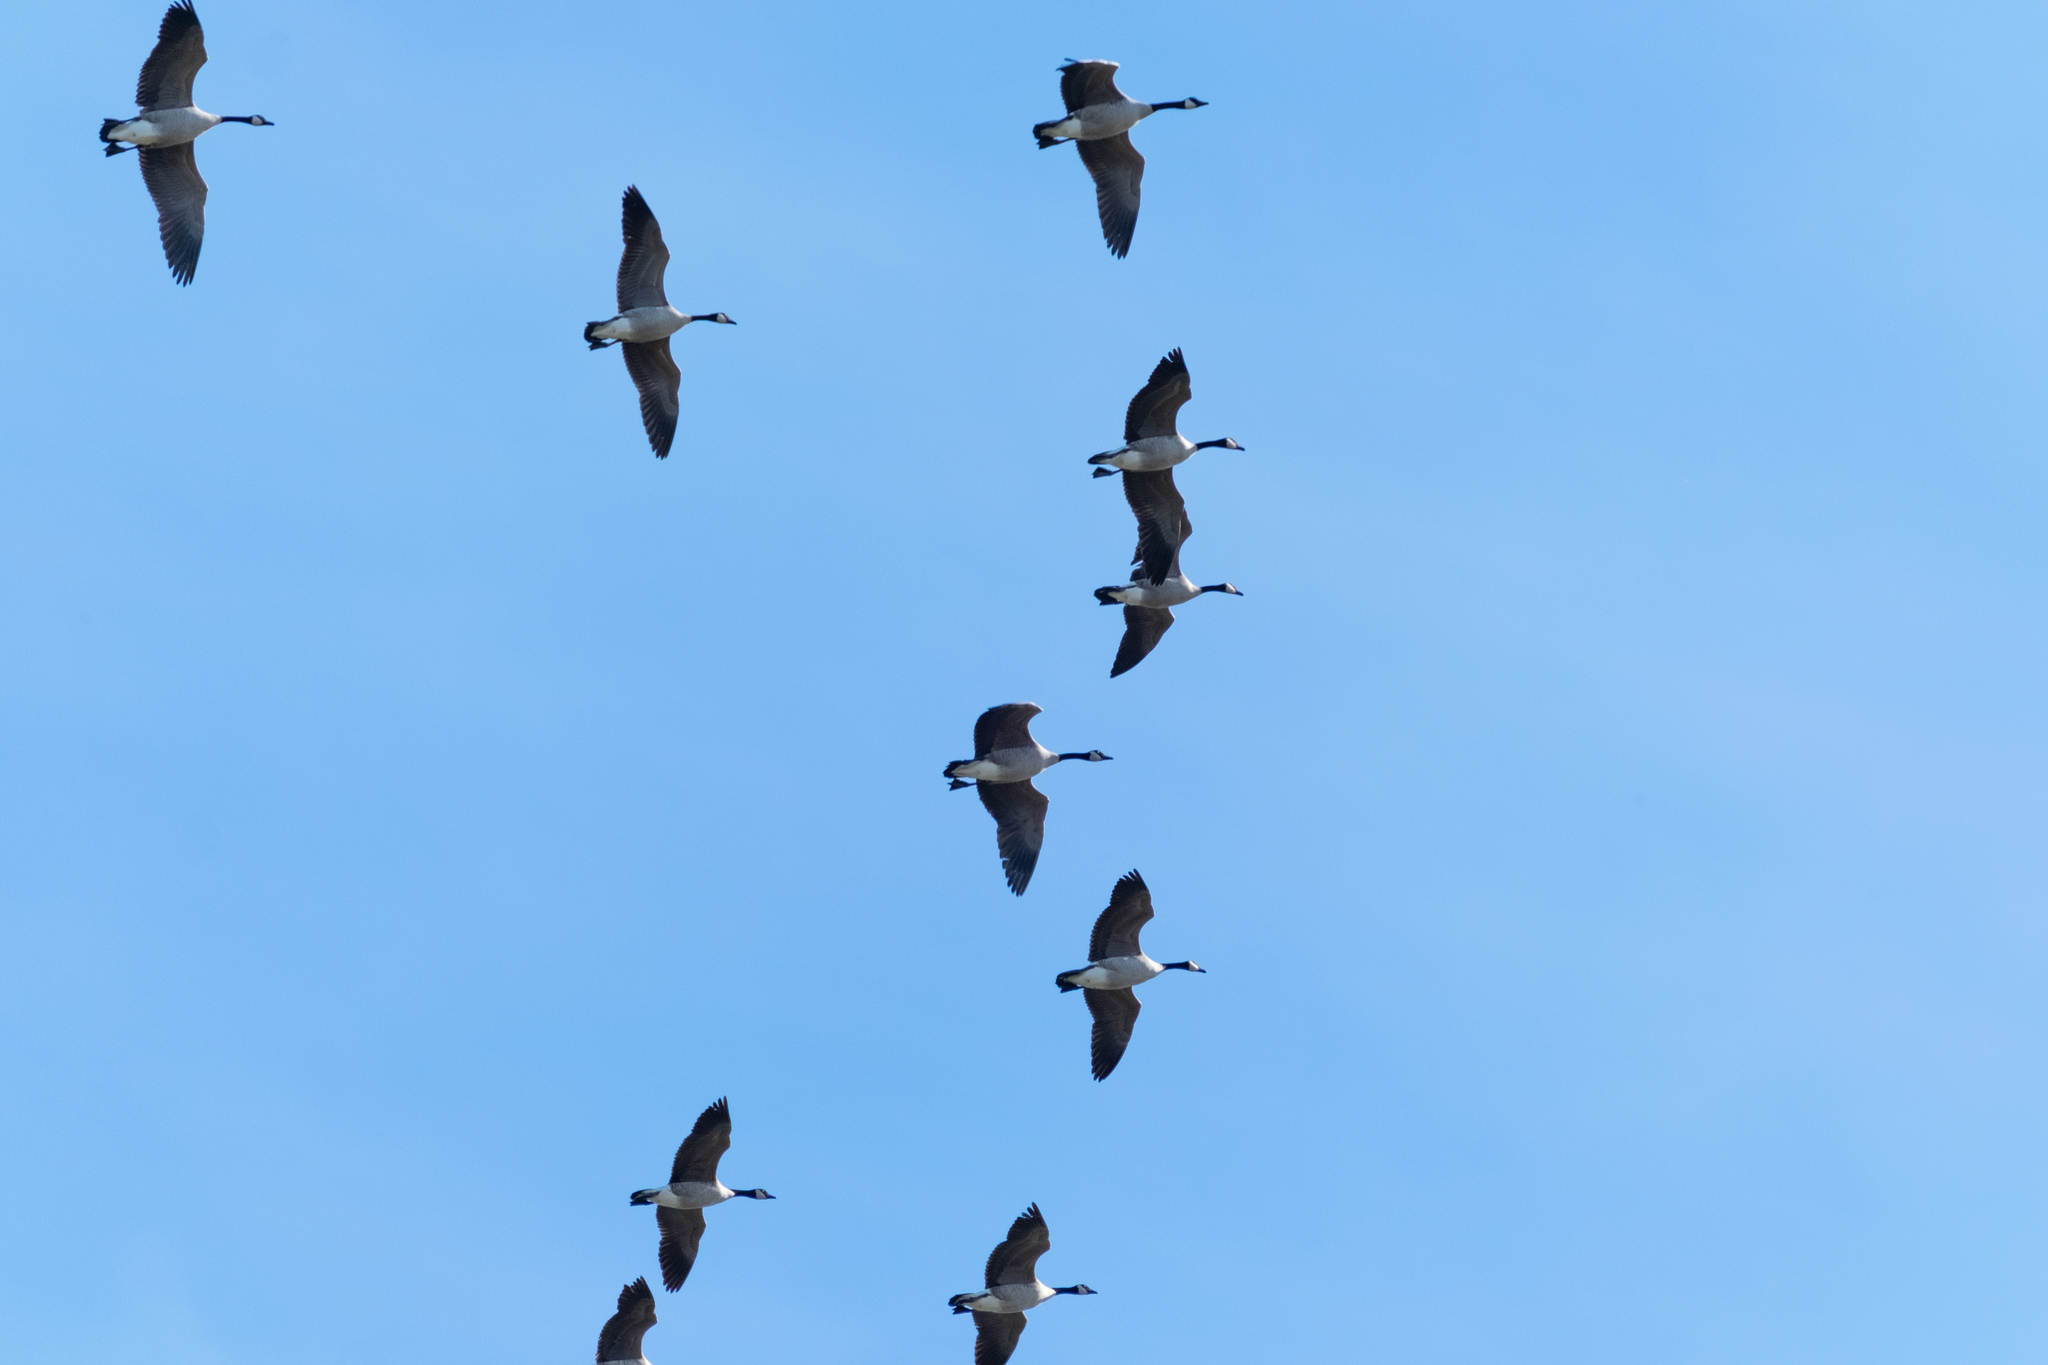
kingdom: Animalia
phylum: Chordata
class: Aves
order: Anseriformes
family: Anatidae
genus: Branta
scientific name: Branta canadensis
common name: Canada goose
